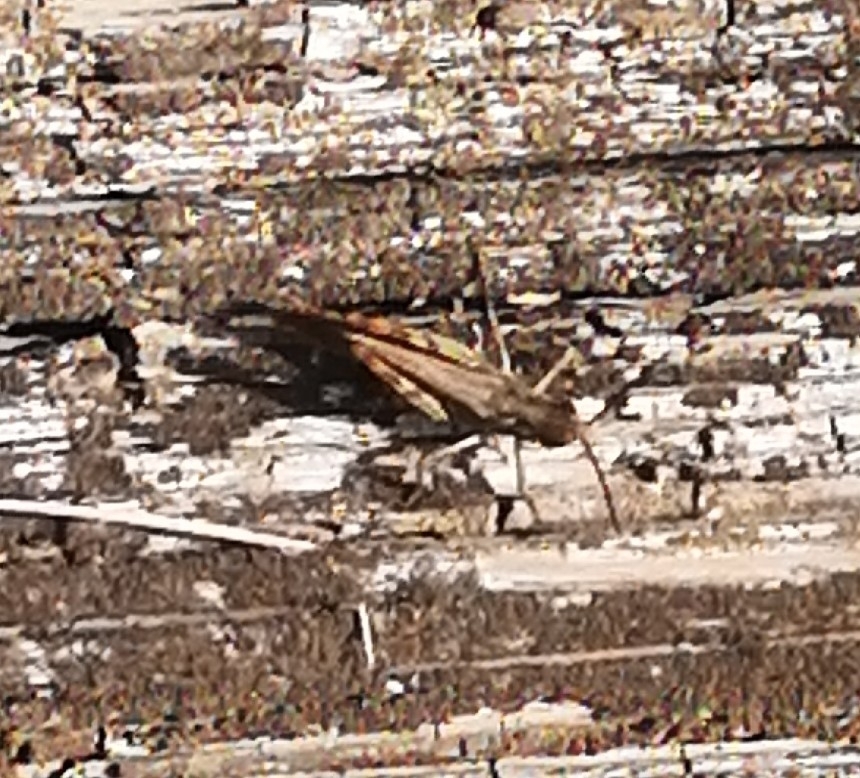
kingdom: Animalia
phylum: Arthropoda
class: Insecta
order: Orthoptera
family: Acrididae
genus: Chorthippus
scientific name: Chorthippus biguttulus
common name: Bow-winged grasshopper
